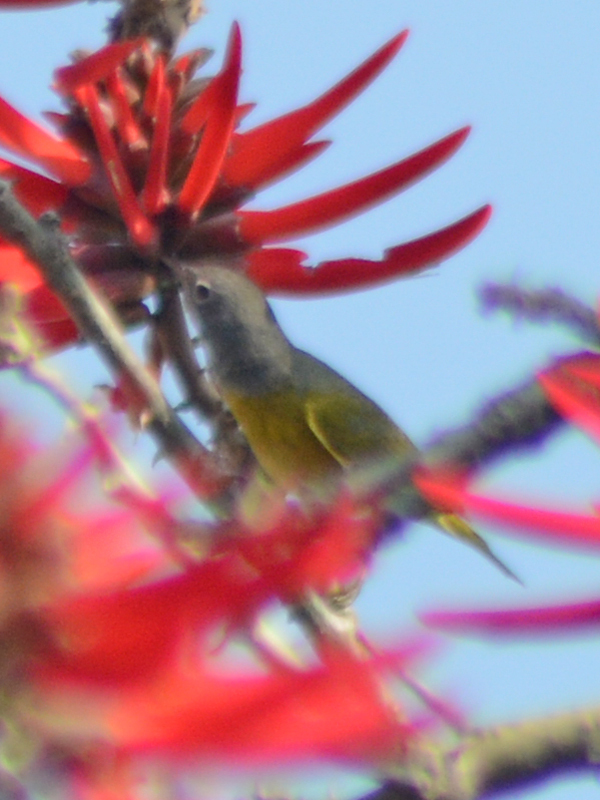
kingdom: Animalia
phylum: Chordata
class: Aves
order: Passeriformes
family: Parulidae
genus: Leiothlypis
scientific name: Leiothlypis ruficapilla
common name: Nashville warbler
